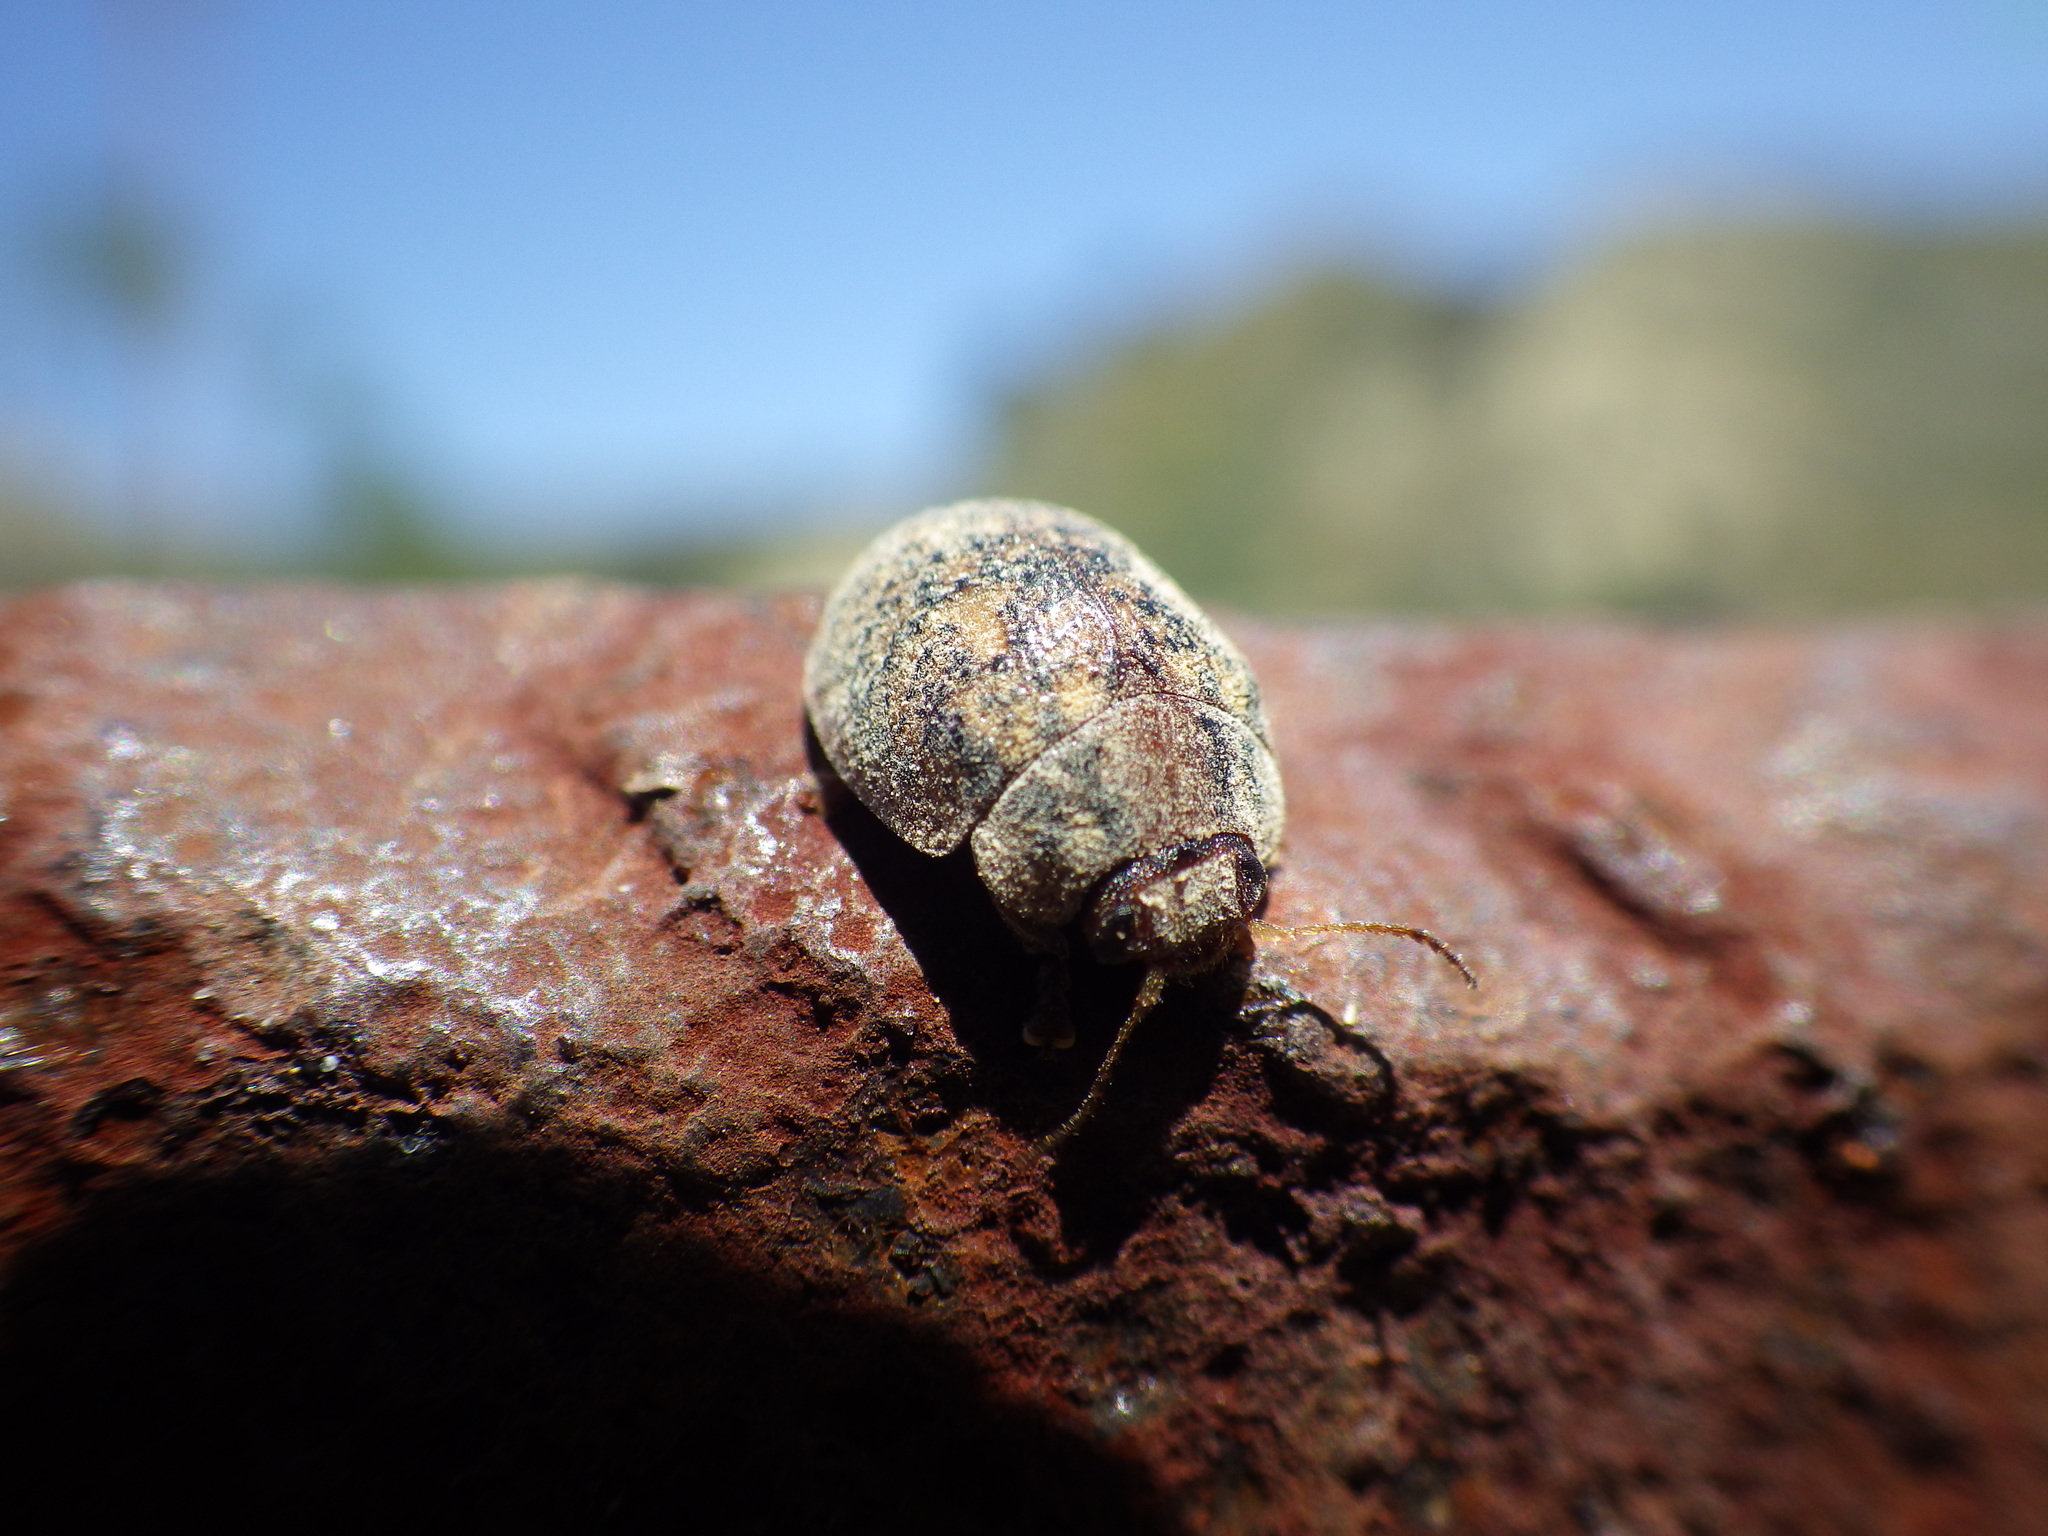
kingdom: Animalia
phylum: Arthropoda
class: Insecta
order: Coleoptera
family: Chrysomelidae
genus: Trachymela
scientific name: Trachymela sloanei
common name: Australian tortoise beetle
